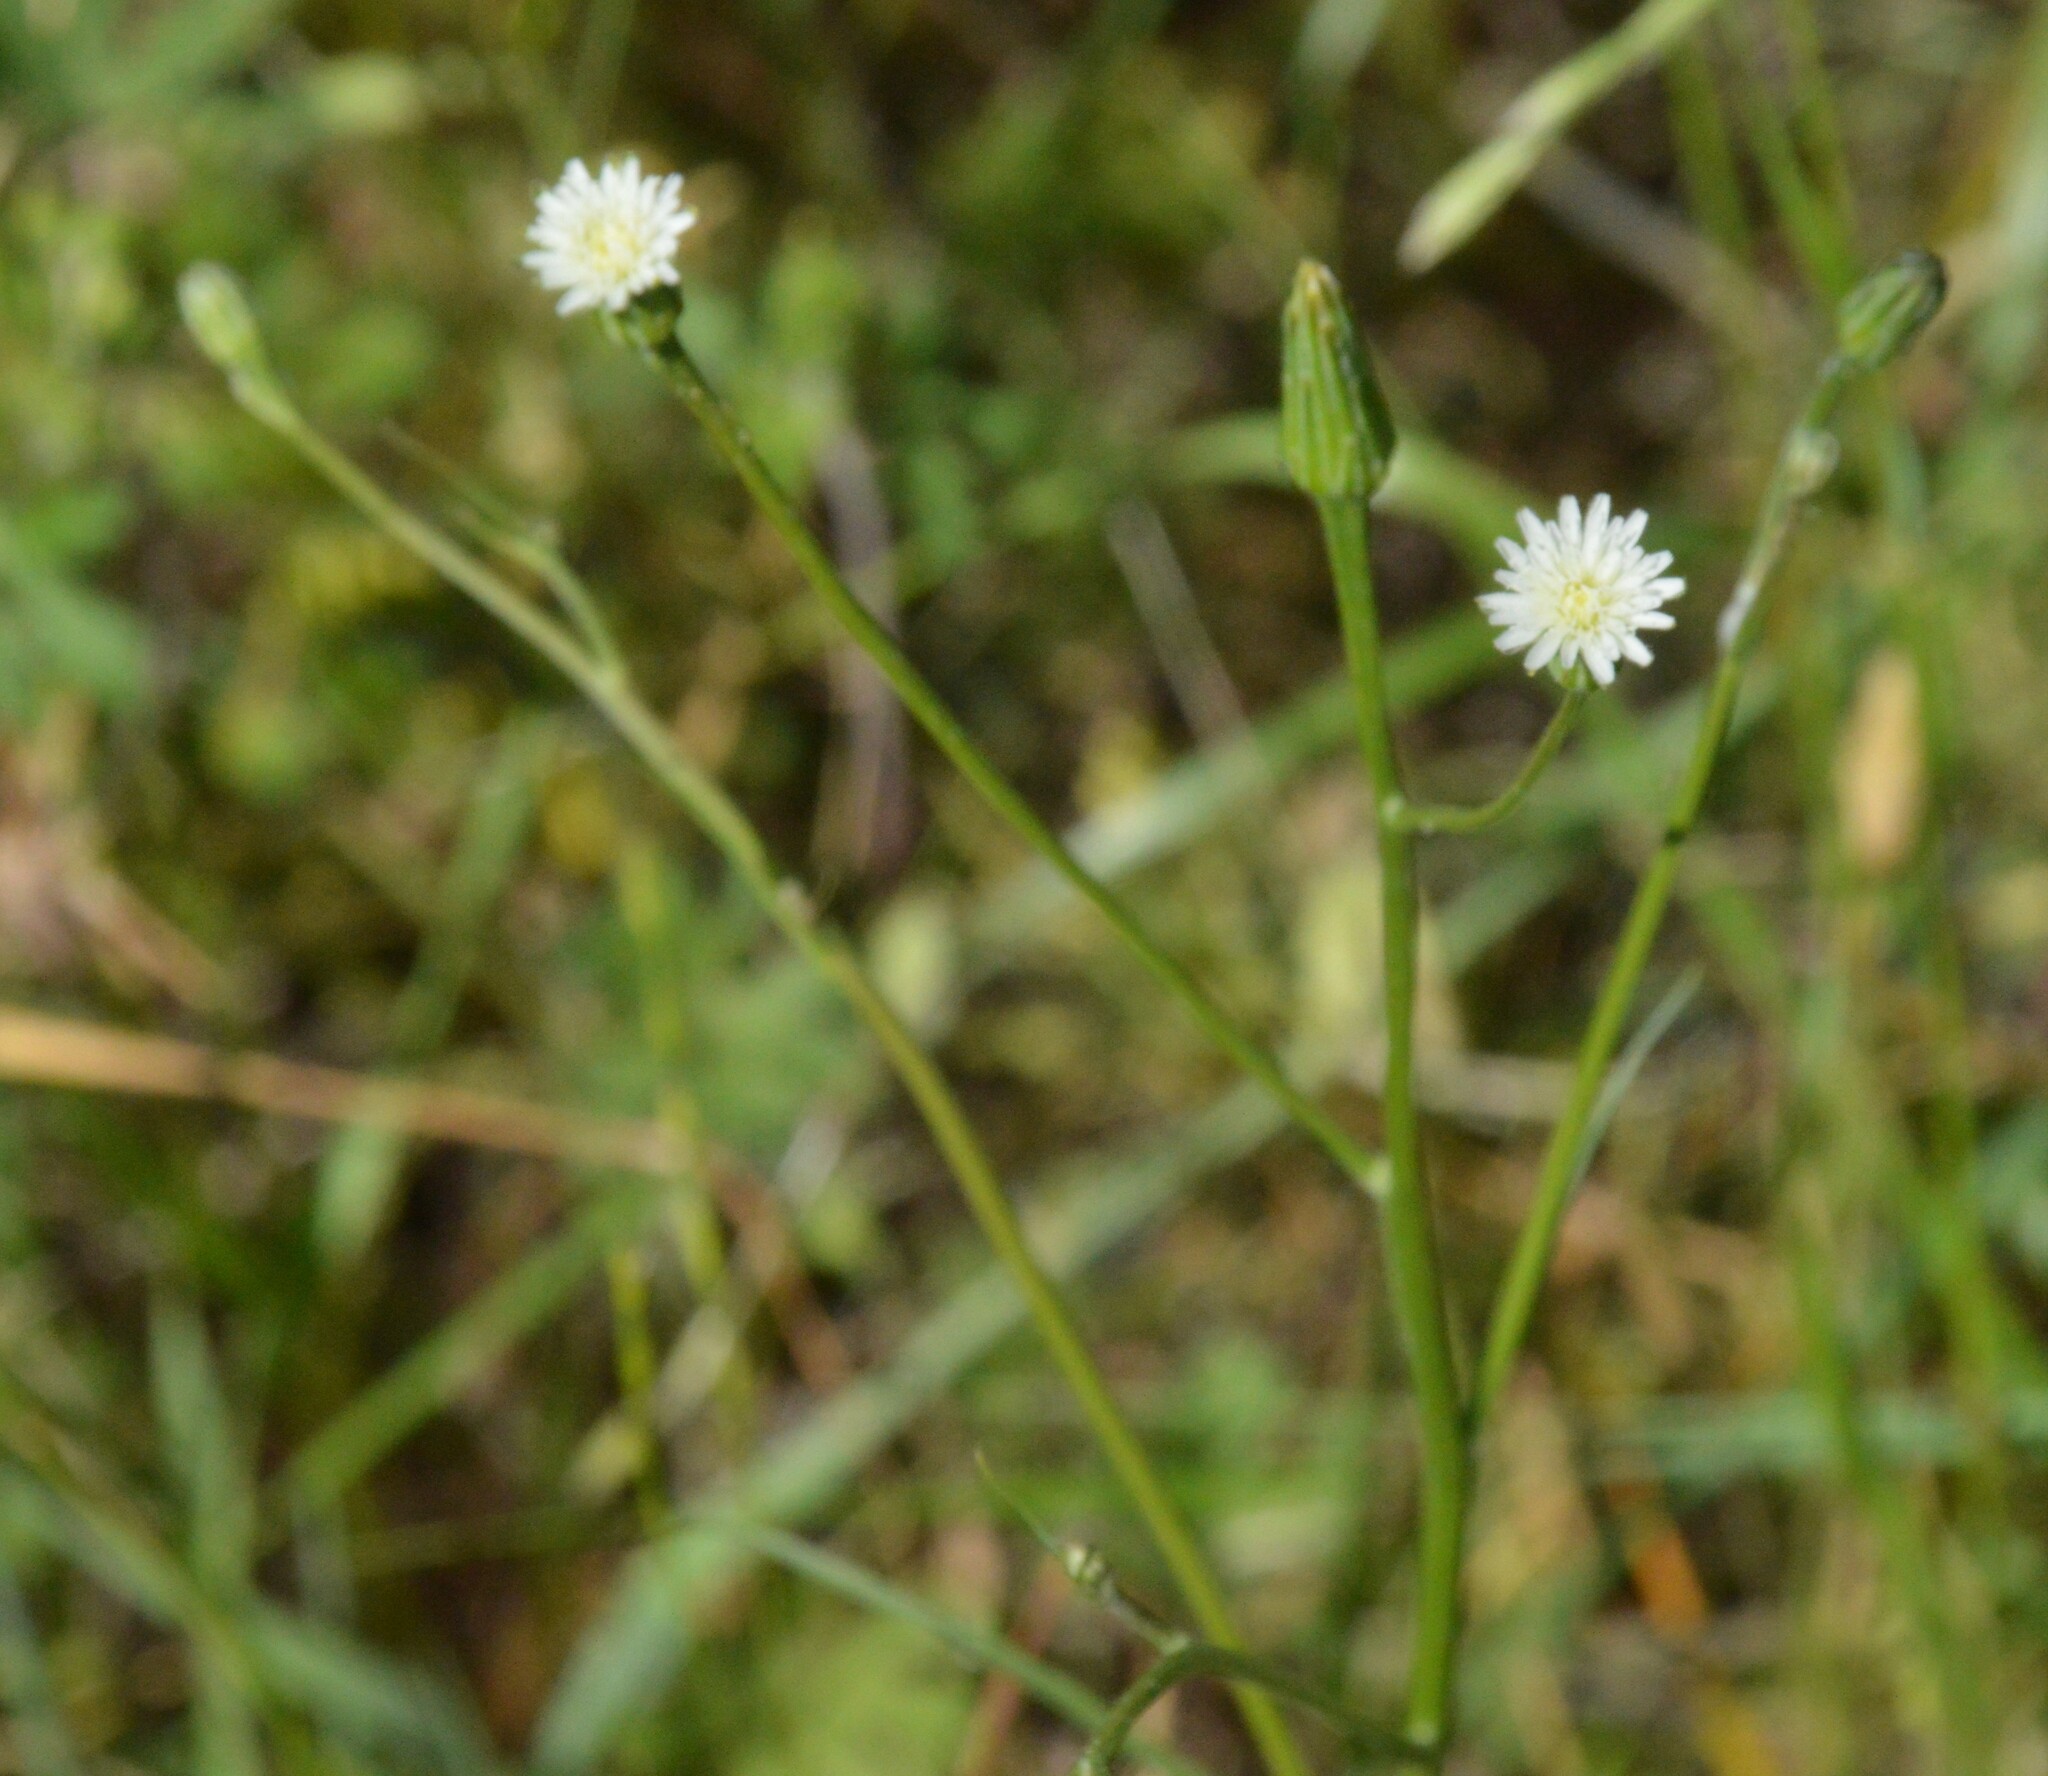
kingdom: Plantae
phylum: Tracheophyta
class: Magnoliopsida
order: Asterales
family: Asteraceae
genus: Hypochaeris
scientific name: Hypochaeris albiflora
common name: White flatweed
